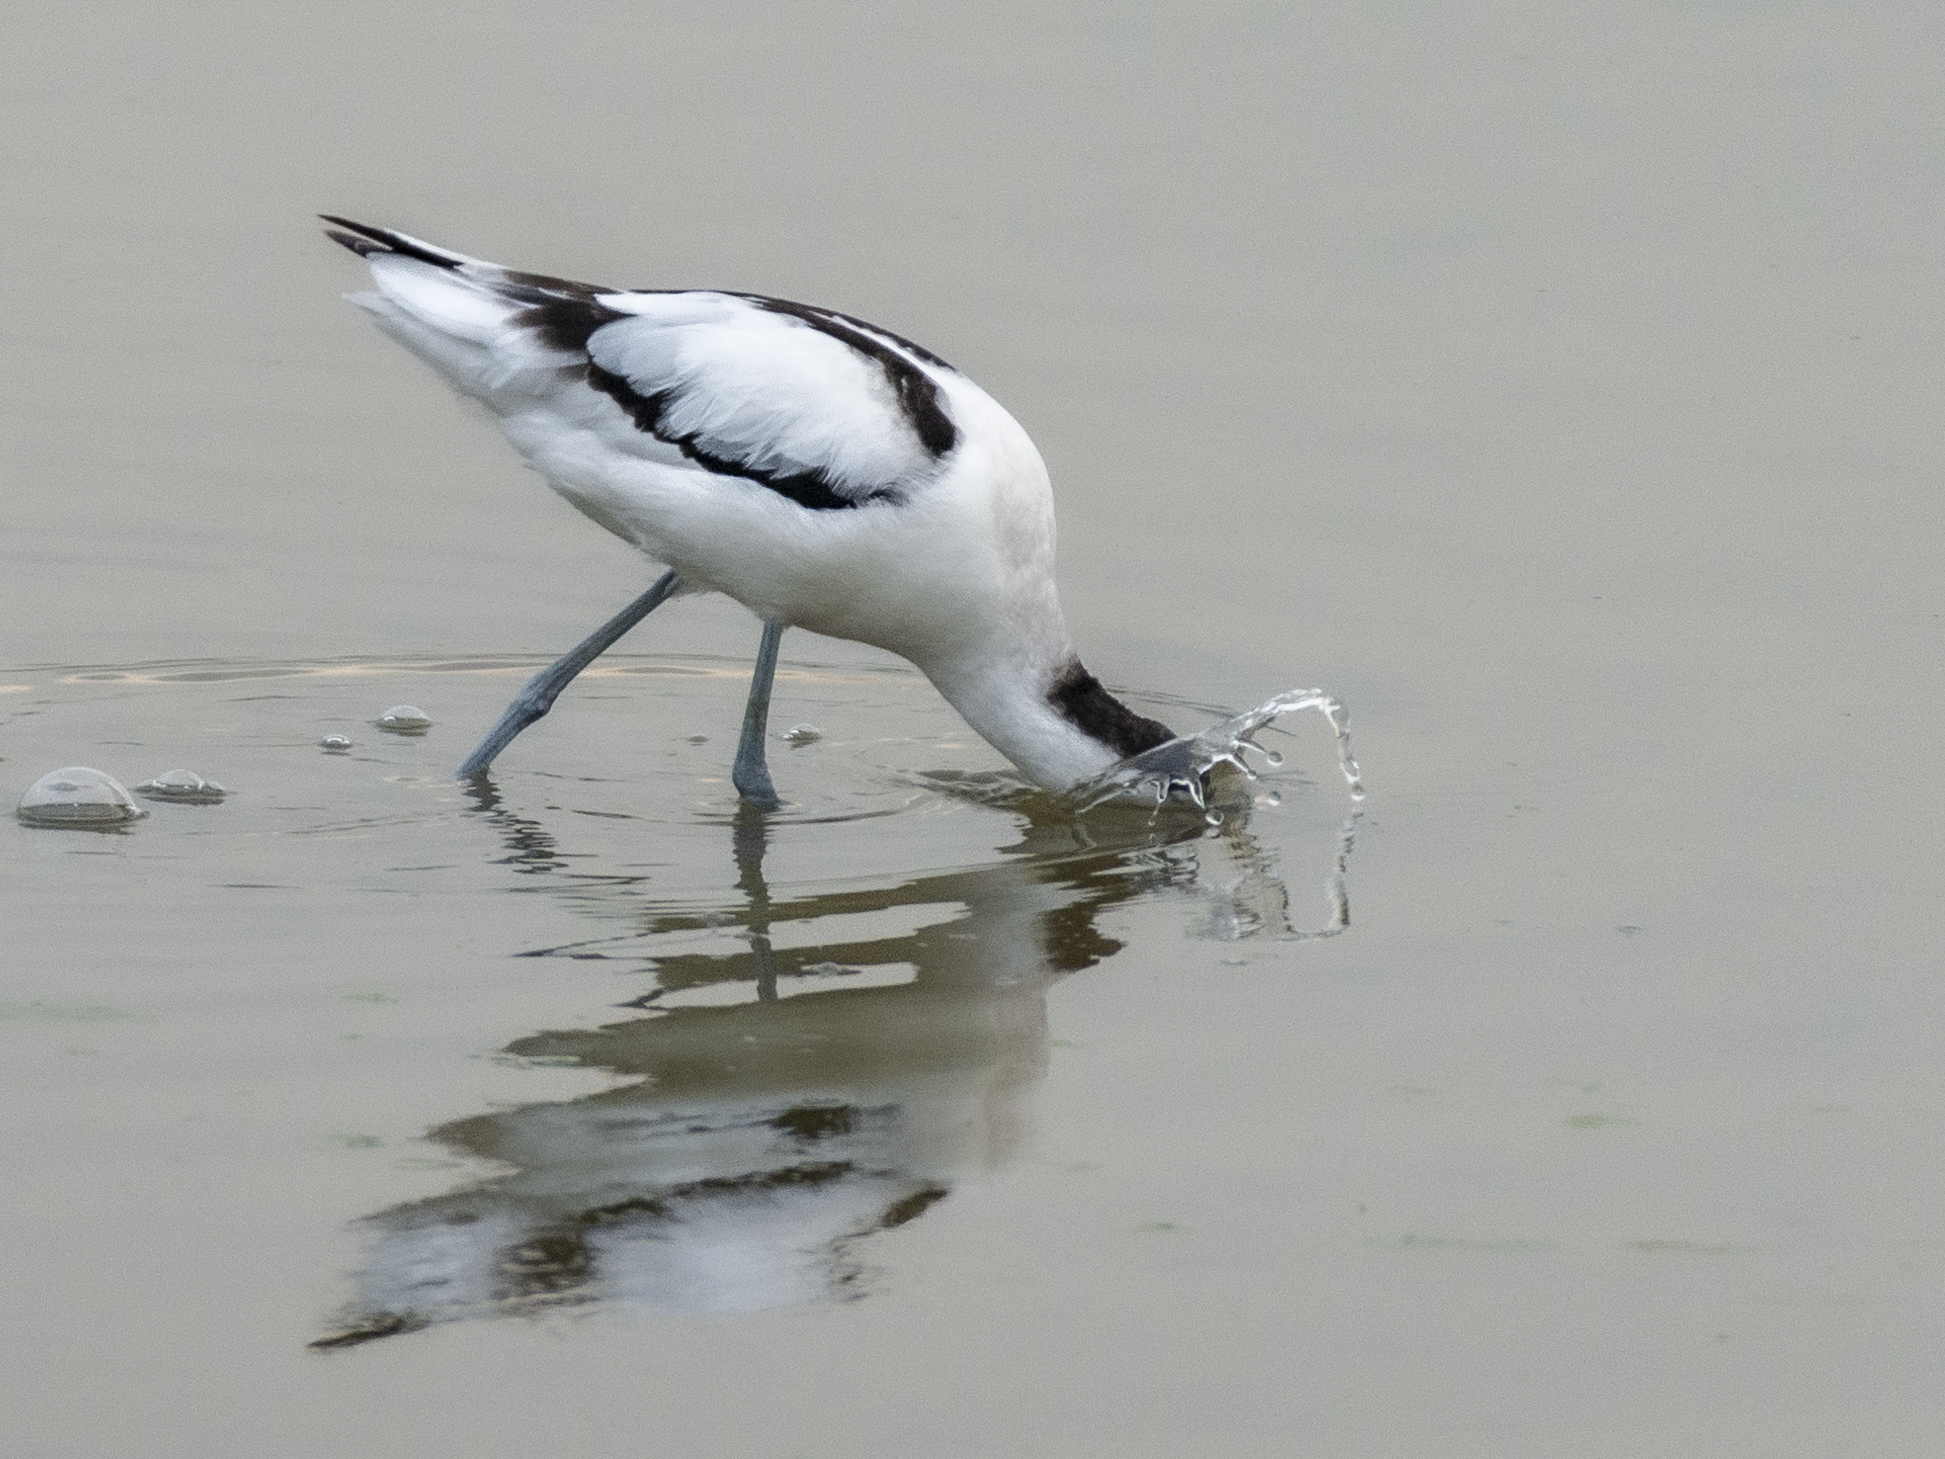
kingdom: Animalia
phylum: Chordata
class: Aves
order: Charadriiformes
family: Recurvirostridae
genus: Recurvirostra
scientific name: Recurvirostra avosetta
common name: Pied avocet
